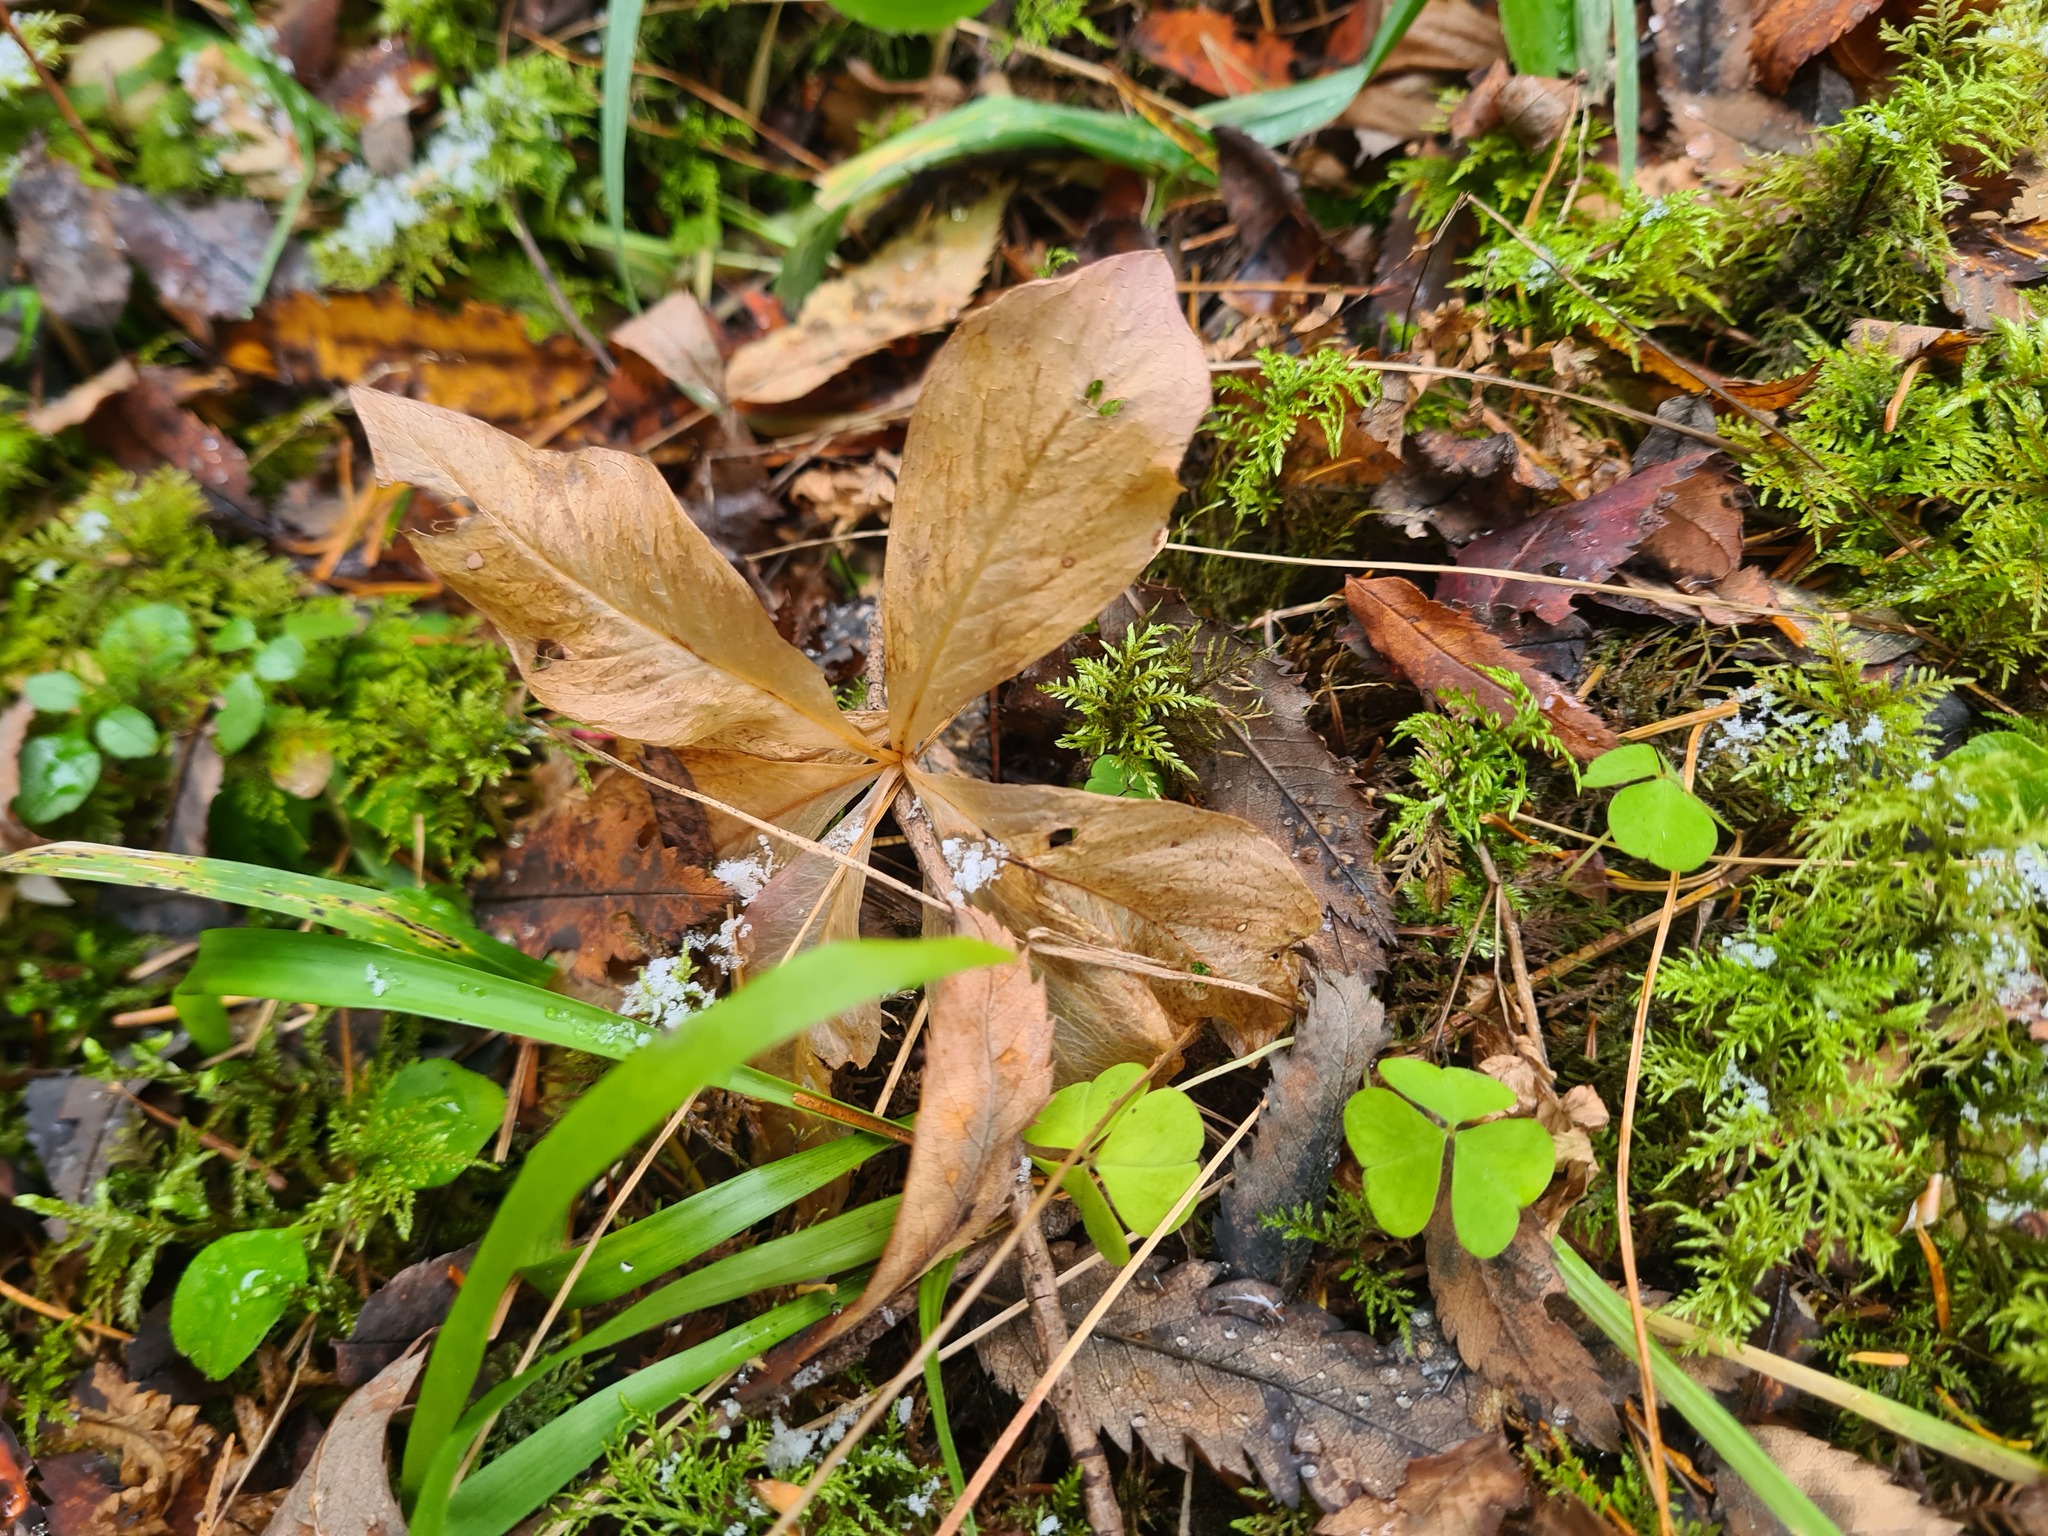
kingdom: Plantae
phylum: Tracheophyta
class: Magnoliopsida
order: Ericales
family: Primulaceae
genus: Lysimachia
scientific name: Lysimachia europaea
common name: Arctic starflower
